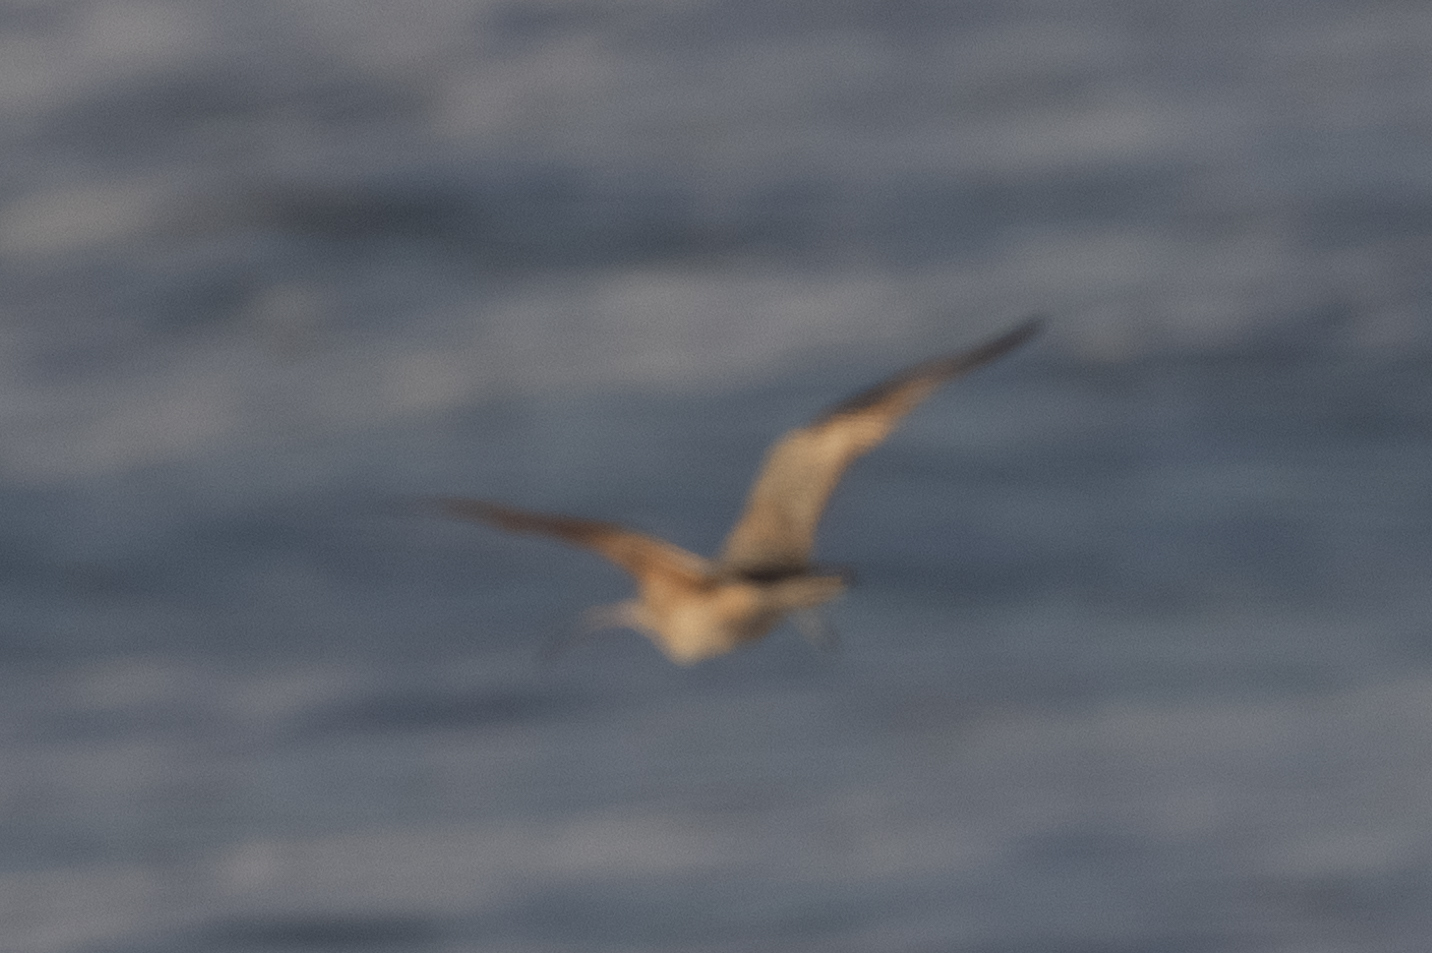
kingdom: Animalia
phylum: Chordata
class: Aves
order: Charadriiformes
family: Scolopacidae
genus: Numenius
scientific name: Numenius americanus
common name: Long-billed curlew
